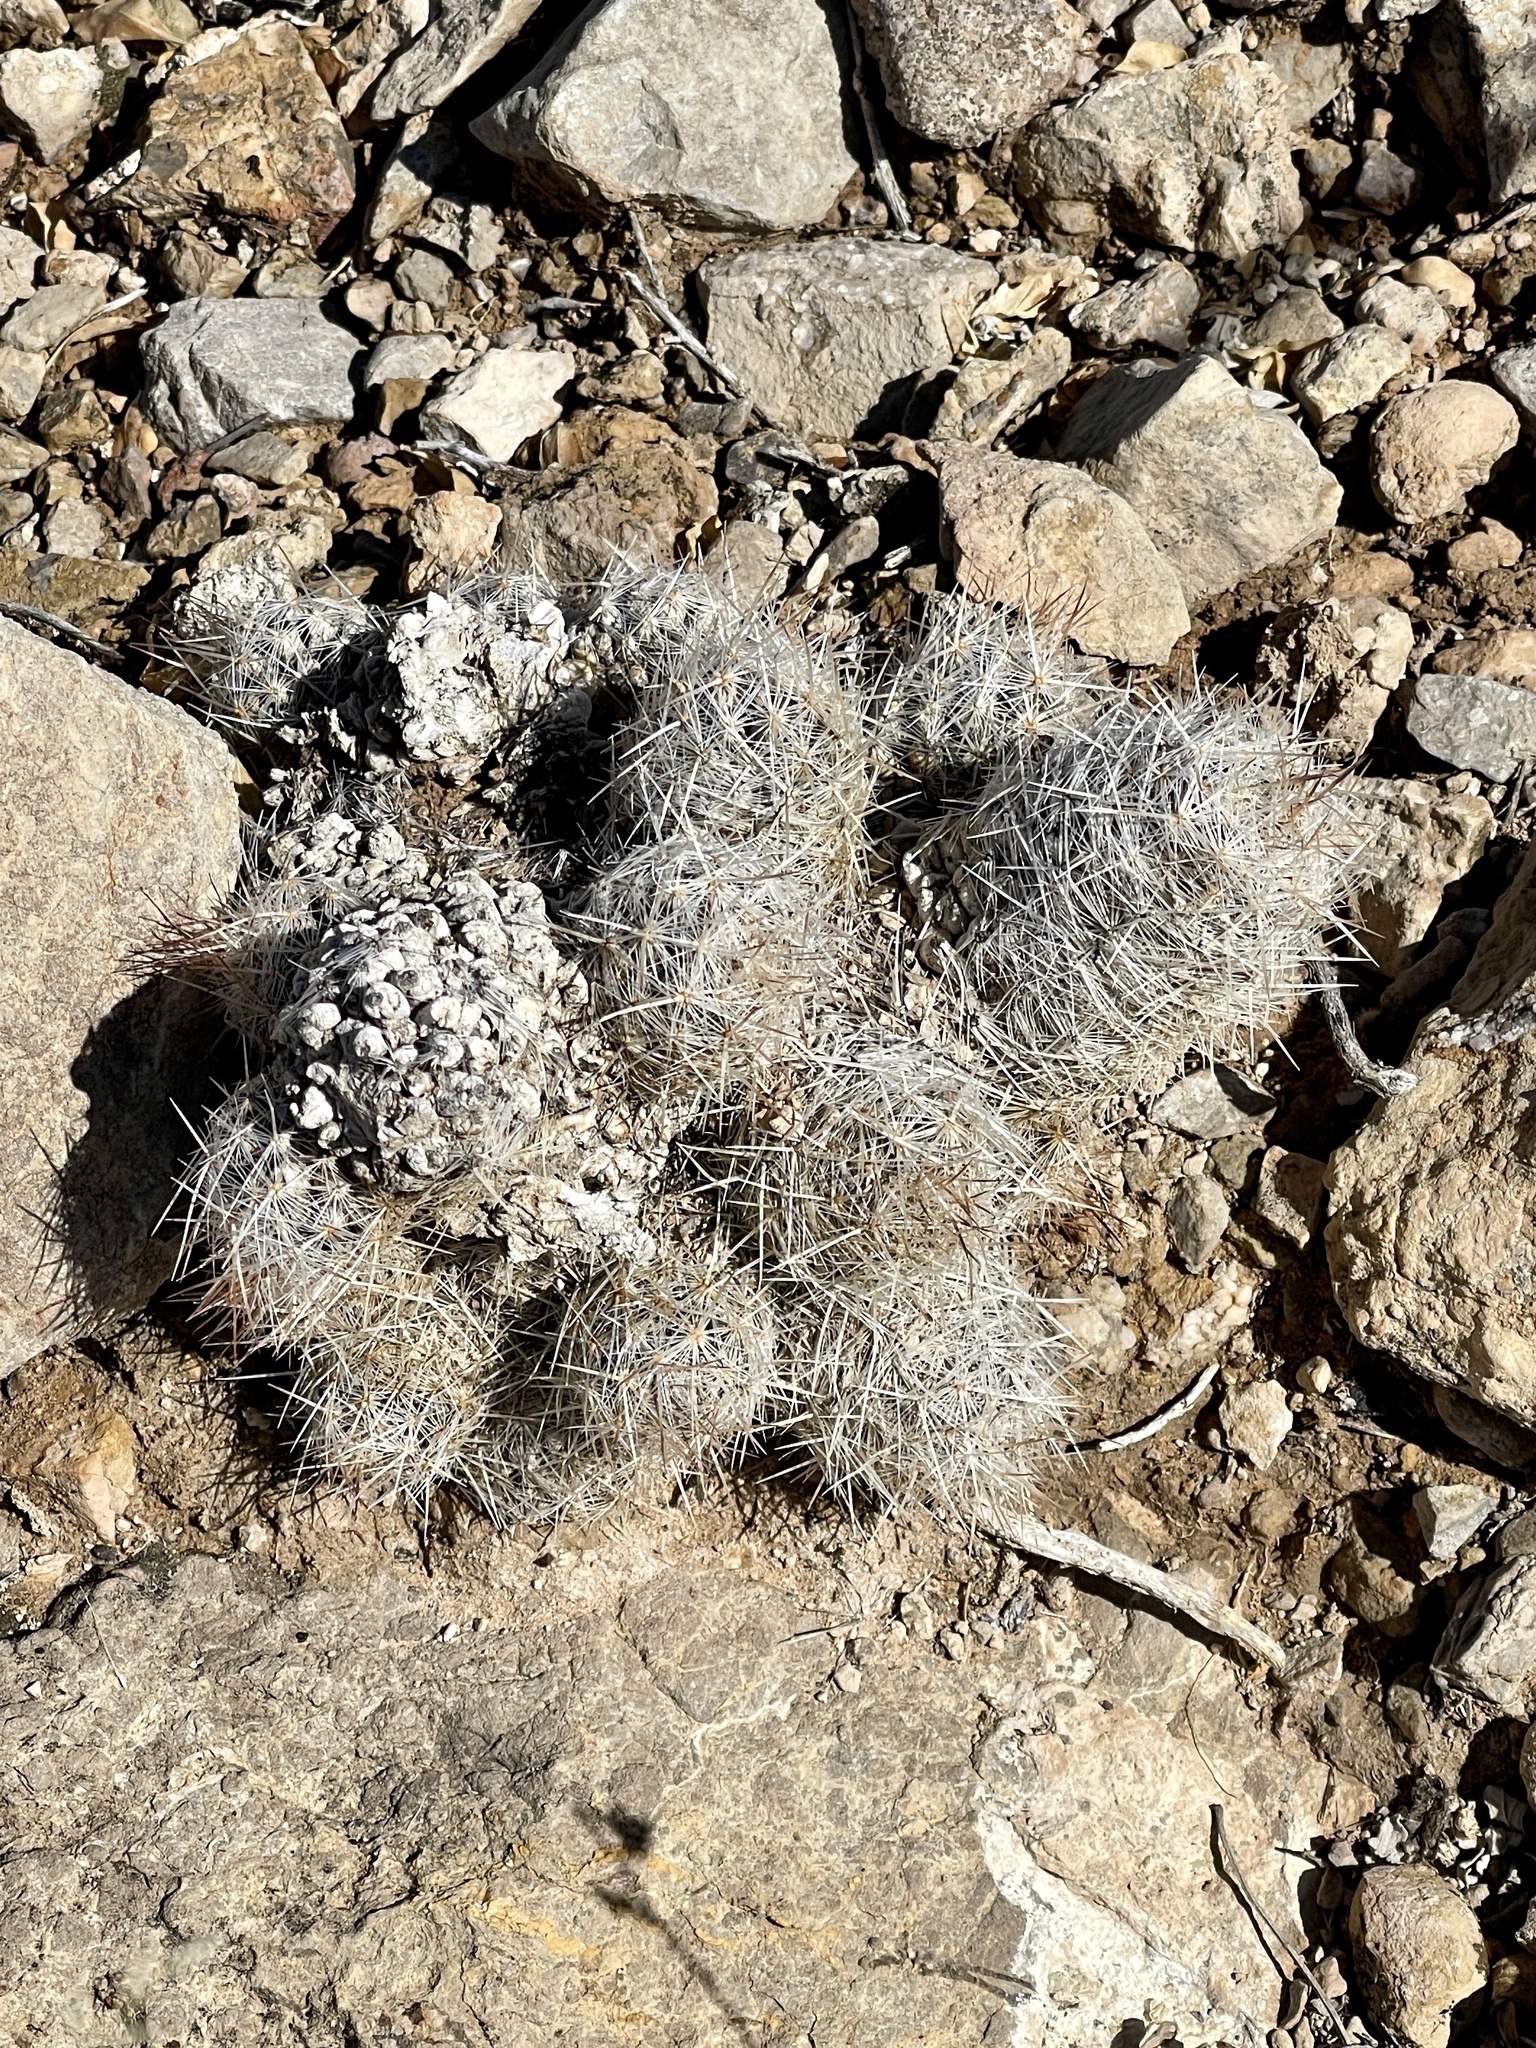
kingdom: Plantae
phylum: Tracheophyta
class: Magnoliopsida
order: Caryophyllales
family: Cactaceae
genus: Pelecyphora
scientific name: Pelecyphora tuberculosa
